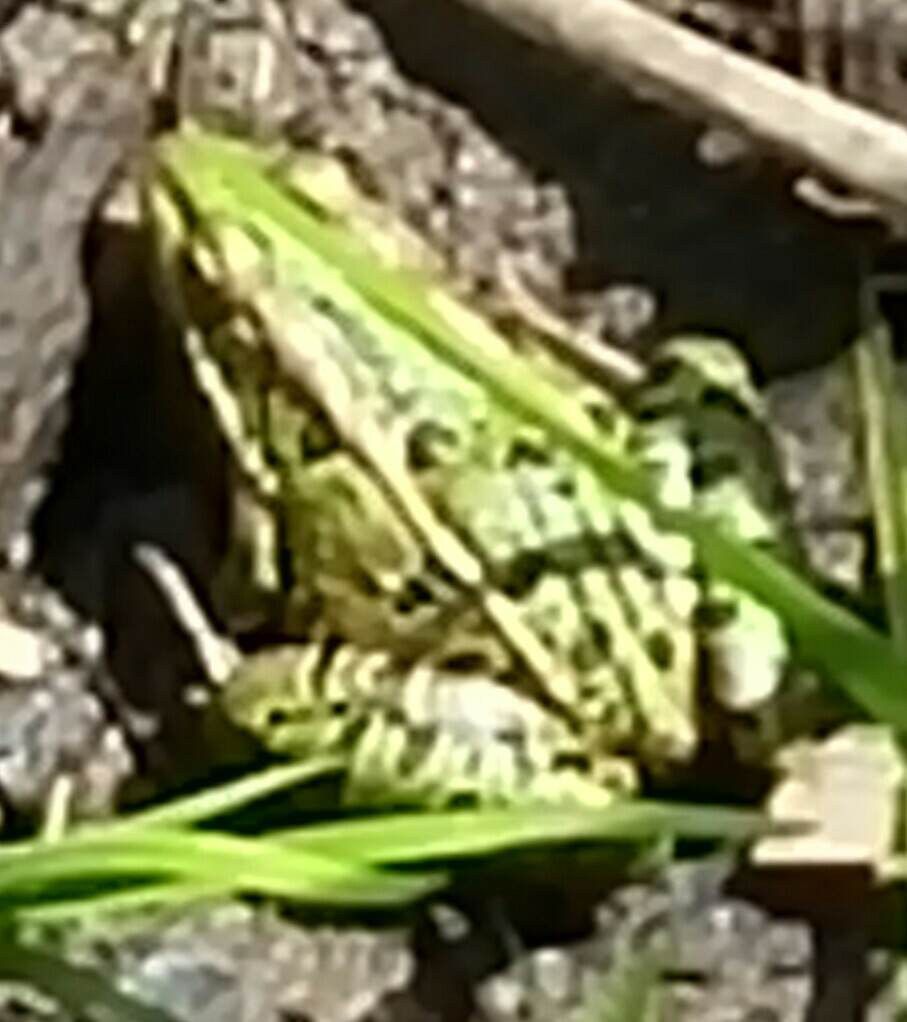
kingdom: Animalia
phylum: Chordata
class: Amphibia
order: Anura
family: Ranidae
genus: Lithobates
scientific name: Lithobates pipiens
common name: Northern leopard frog
